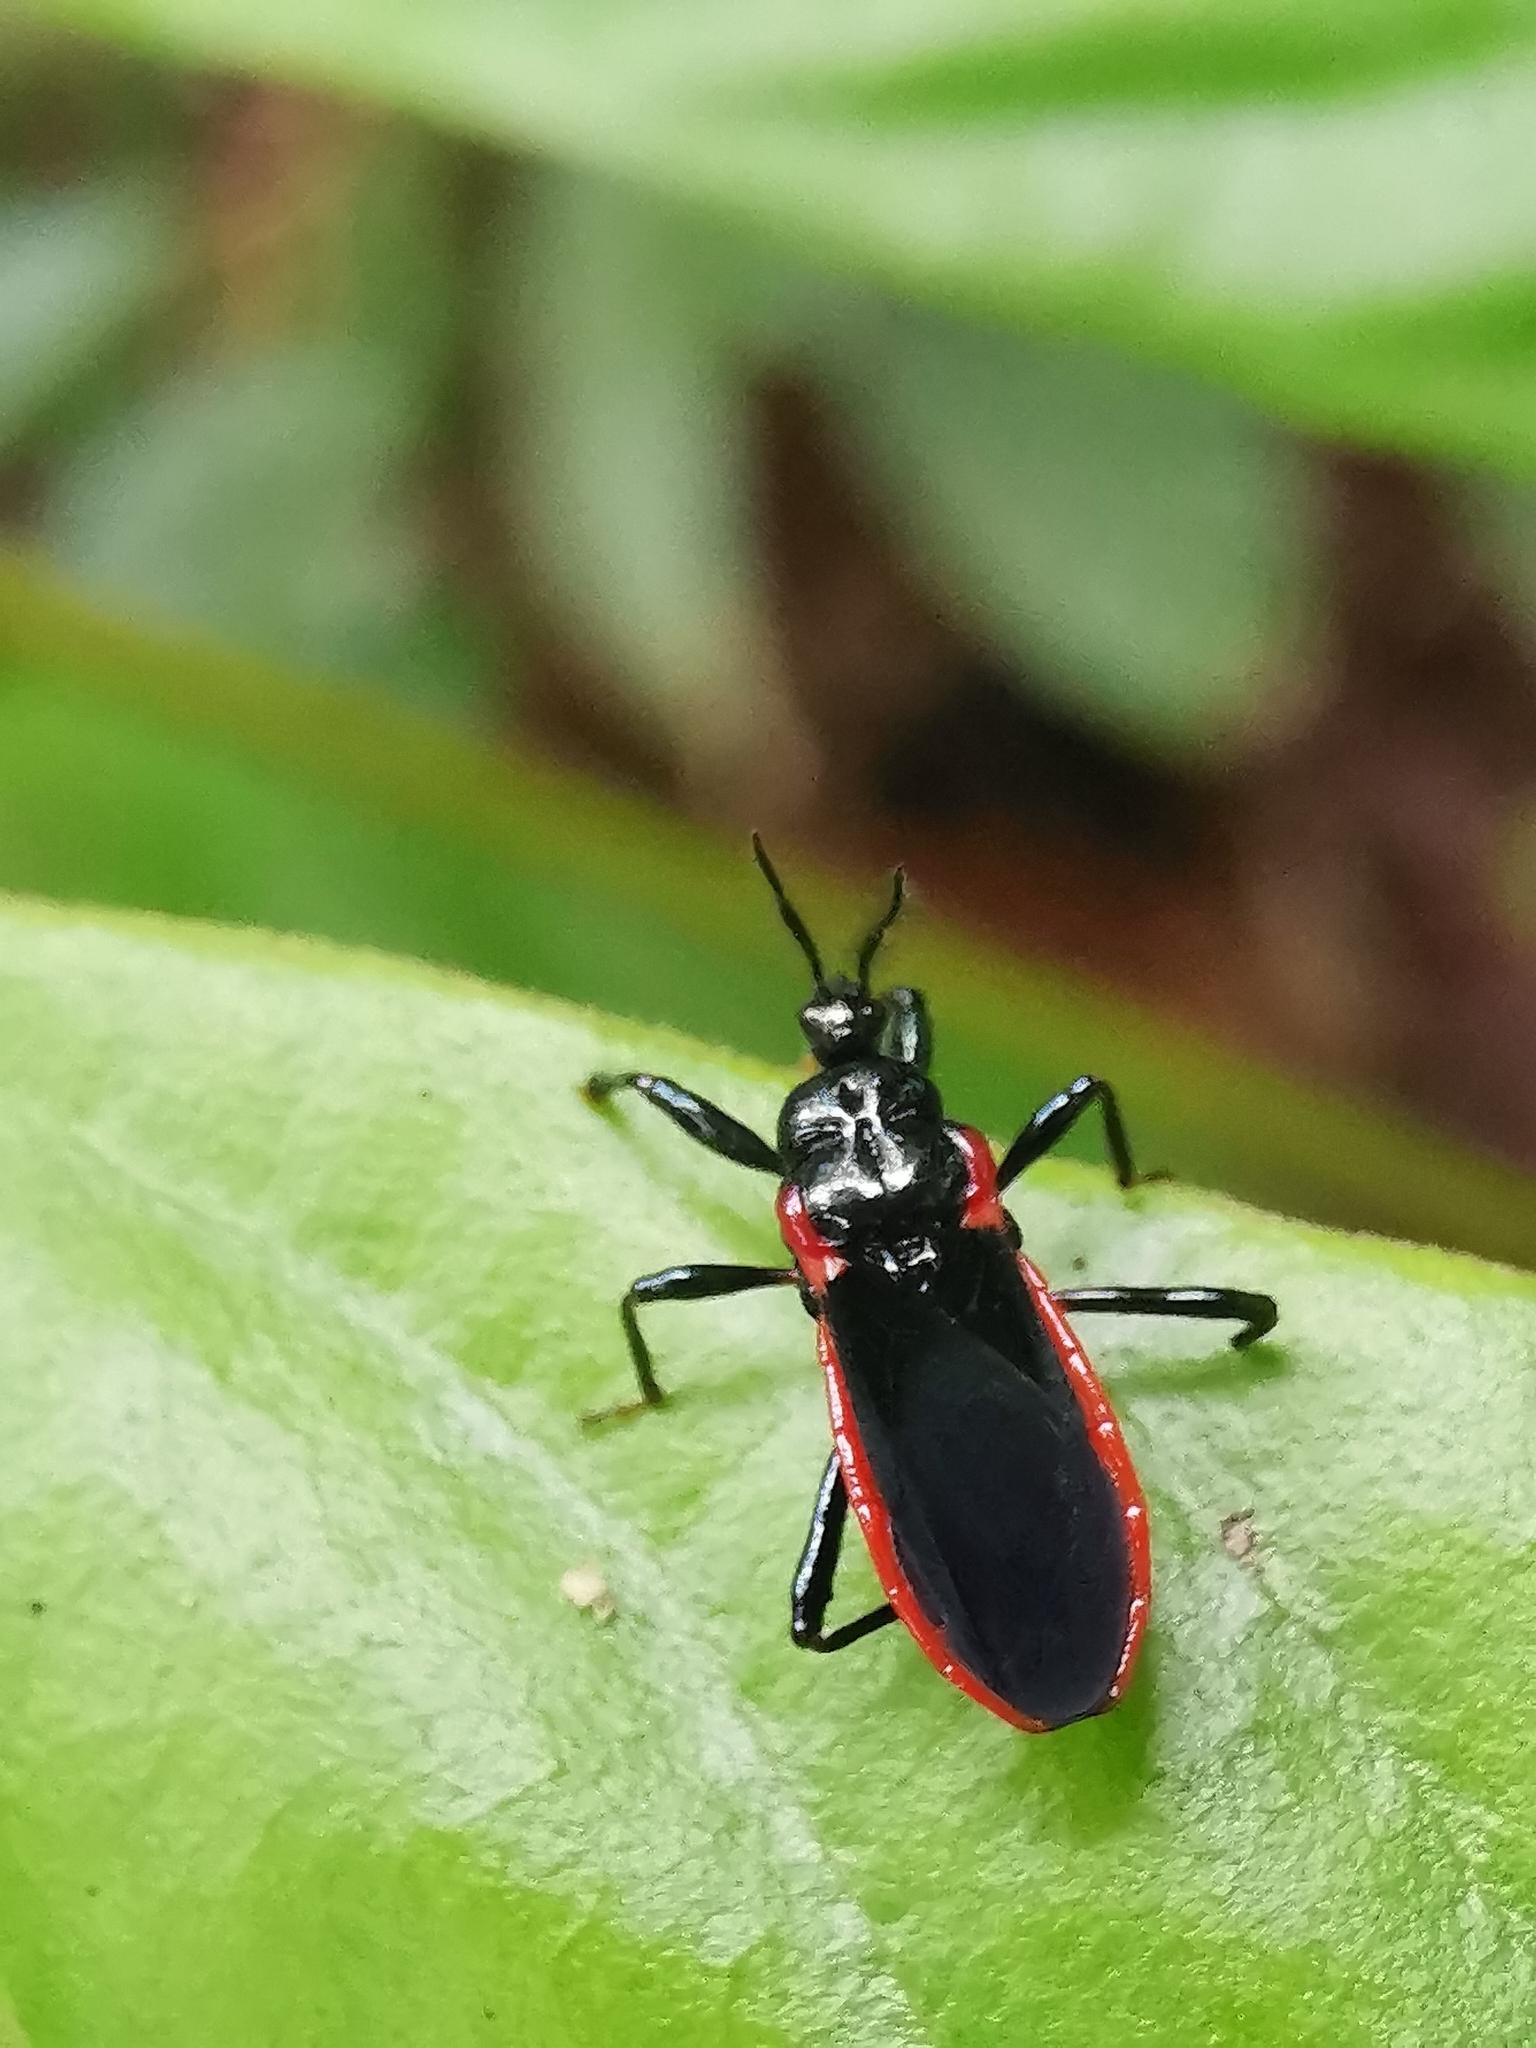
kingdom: Animalia
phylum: Arthropoda
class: Insecta
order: Hemiptera
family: Reduviidae
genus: Ectrychotes
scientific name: Ectrychotes fruhstorferi
